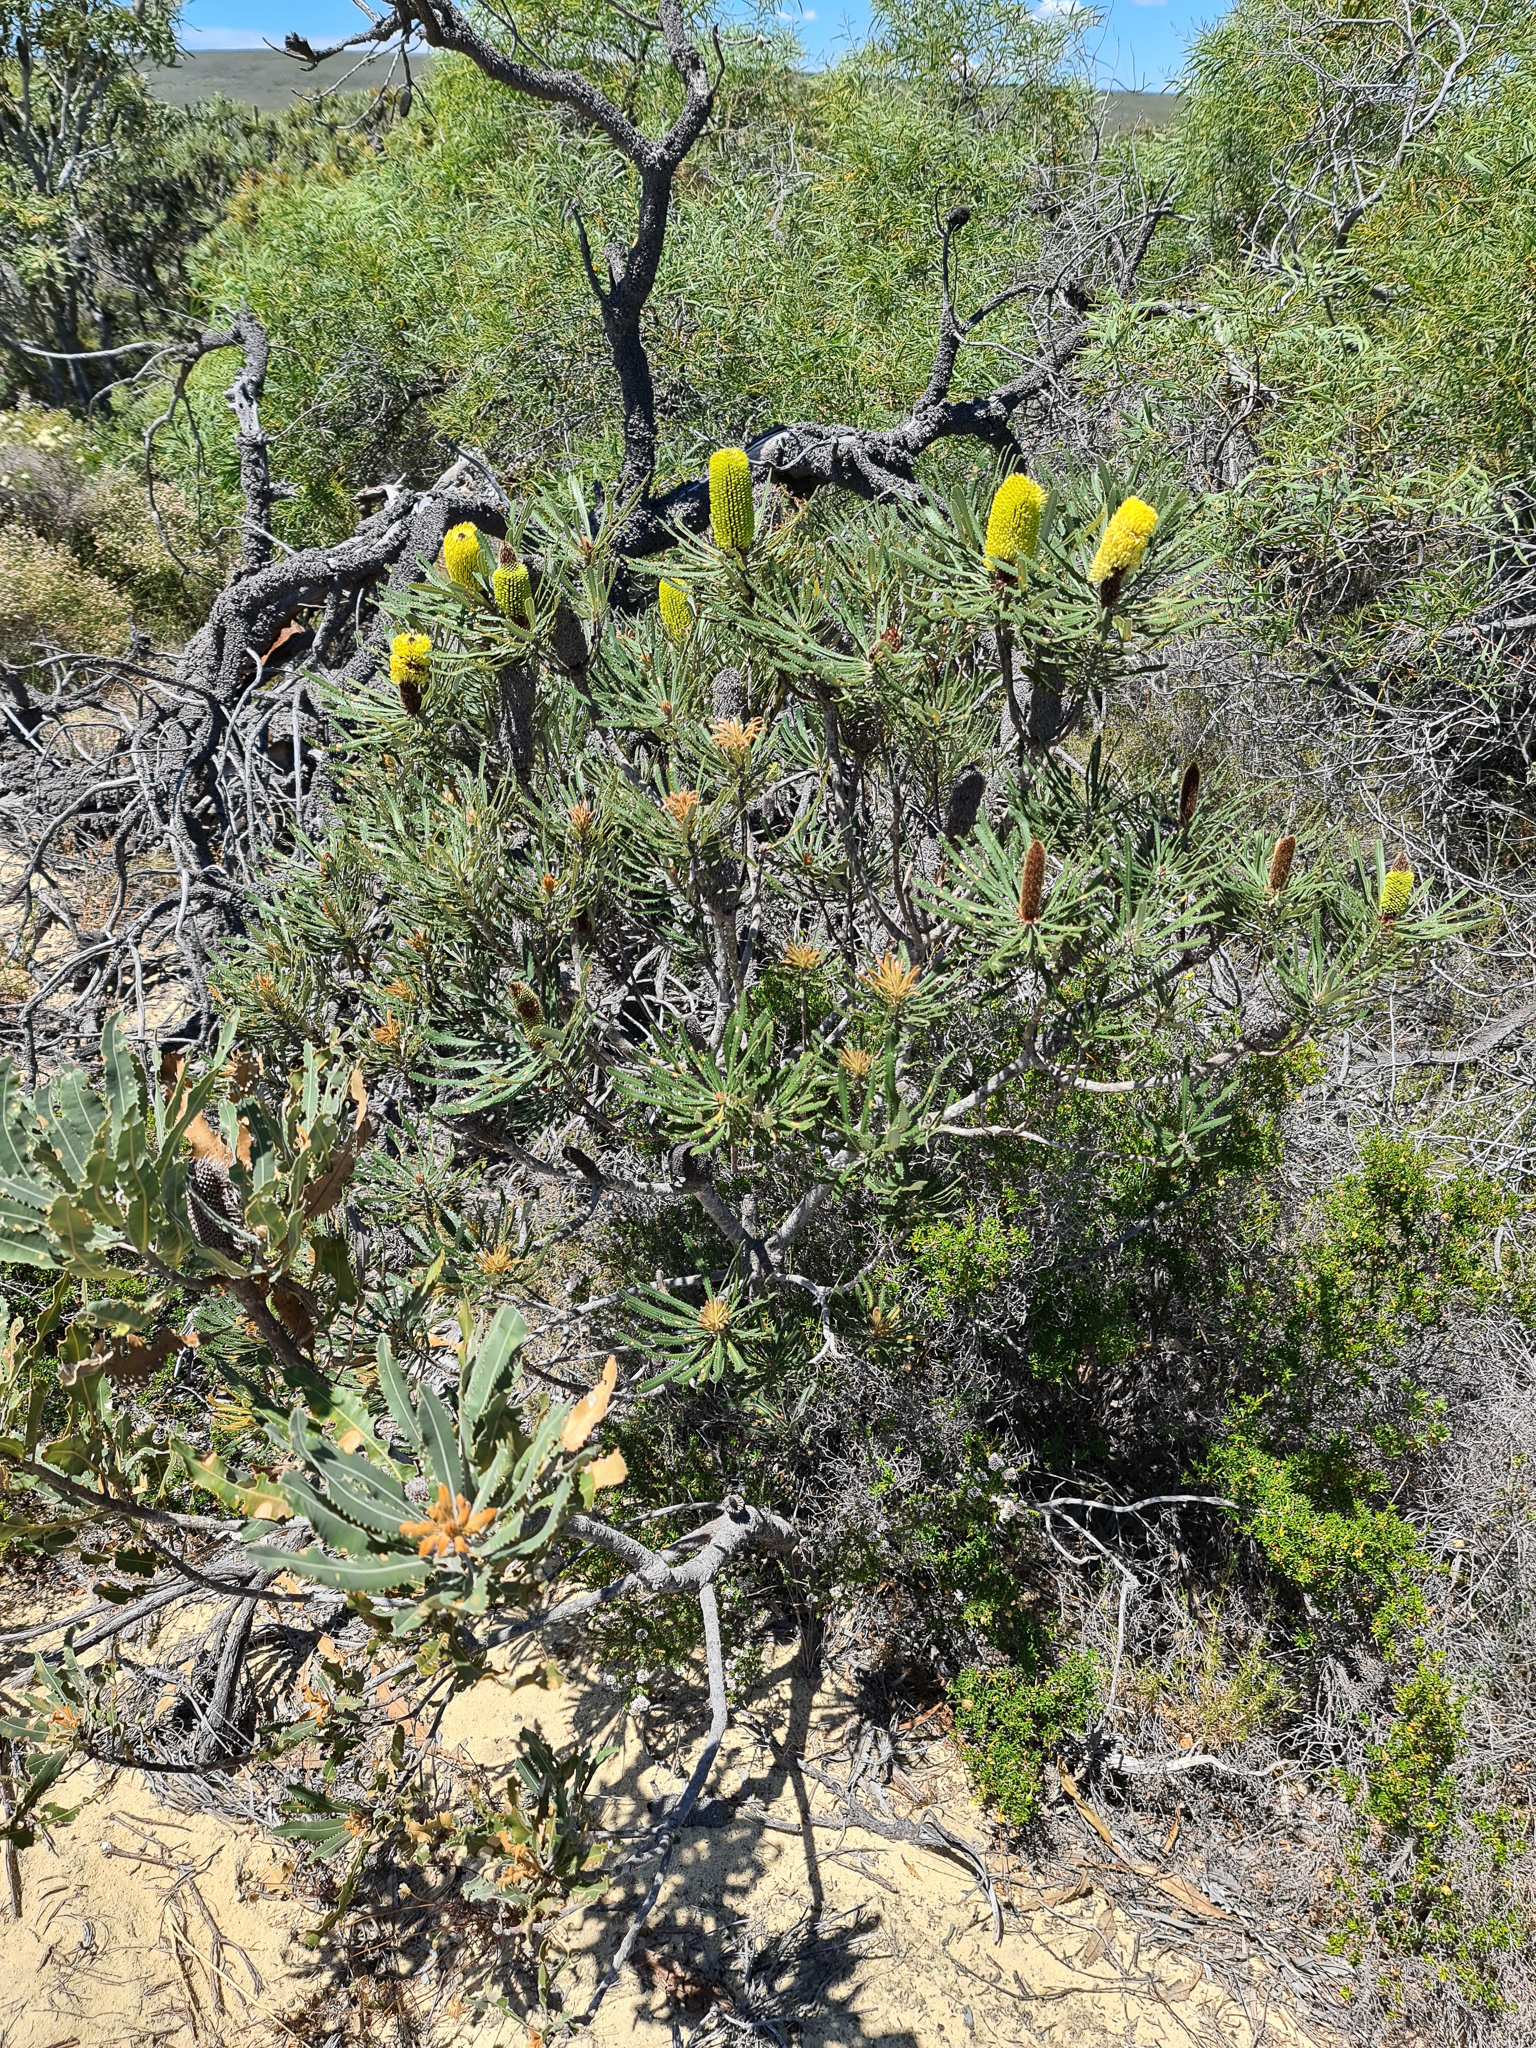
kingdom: Plantae
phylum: Tracheophyta
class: Magnoliopsida
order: Proteales
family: Proteaceae
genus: Banksia
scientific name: Banksia attenuata
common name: Coast banksia
